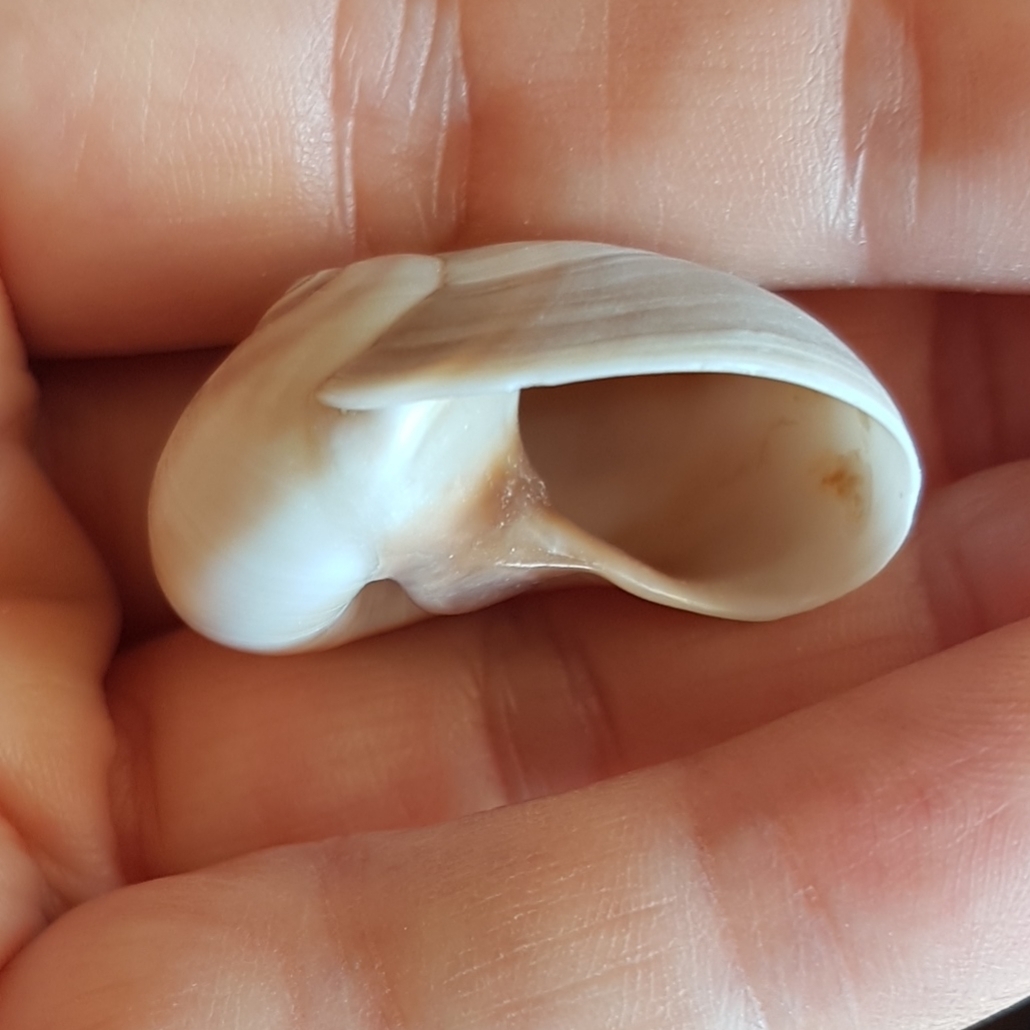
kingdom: Animalia
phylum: Mollusca
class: Gastropoda
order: Littorinimorpha
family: Naticidae
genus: Neverita
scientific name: Neverita josephinia
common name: Josephine's moonsnail
